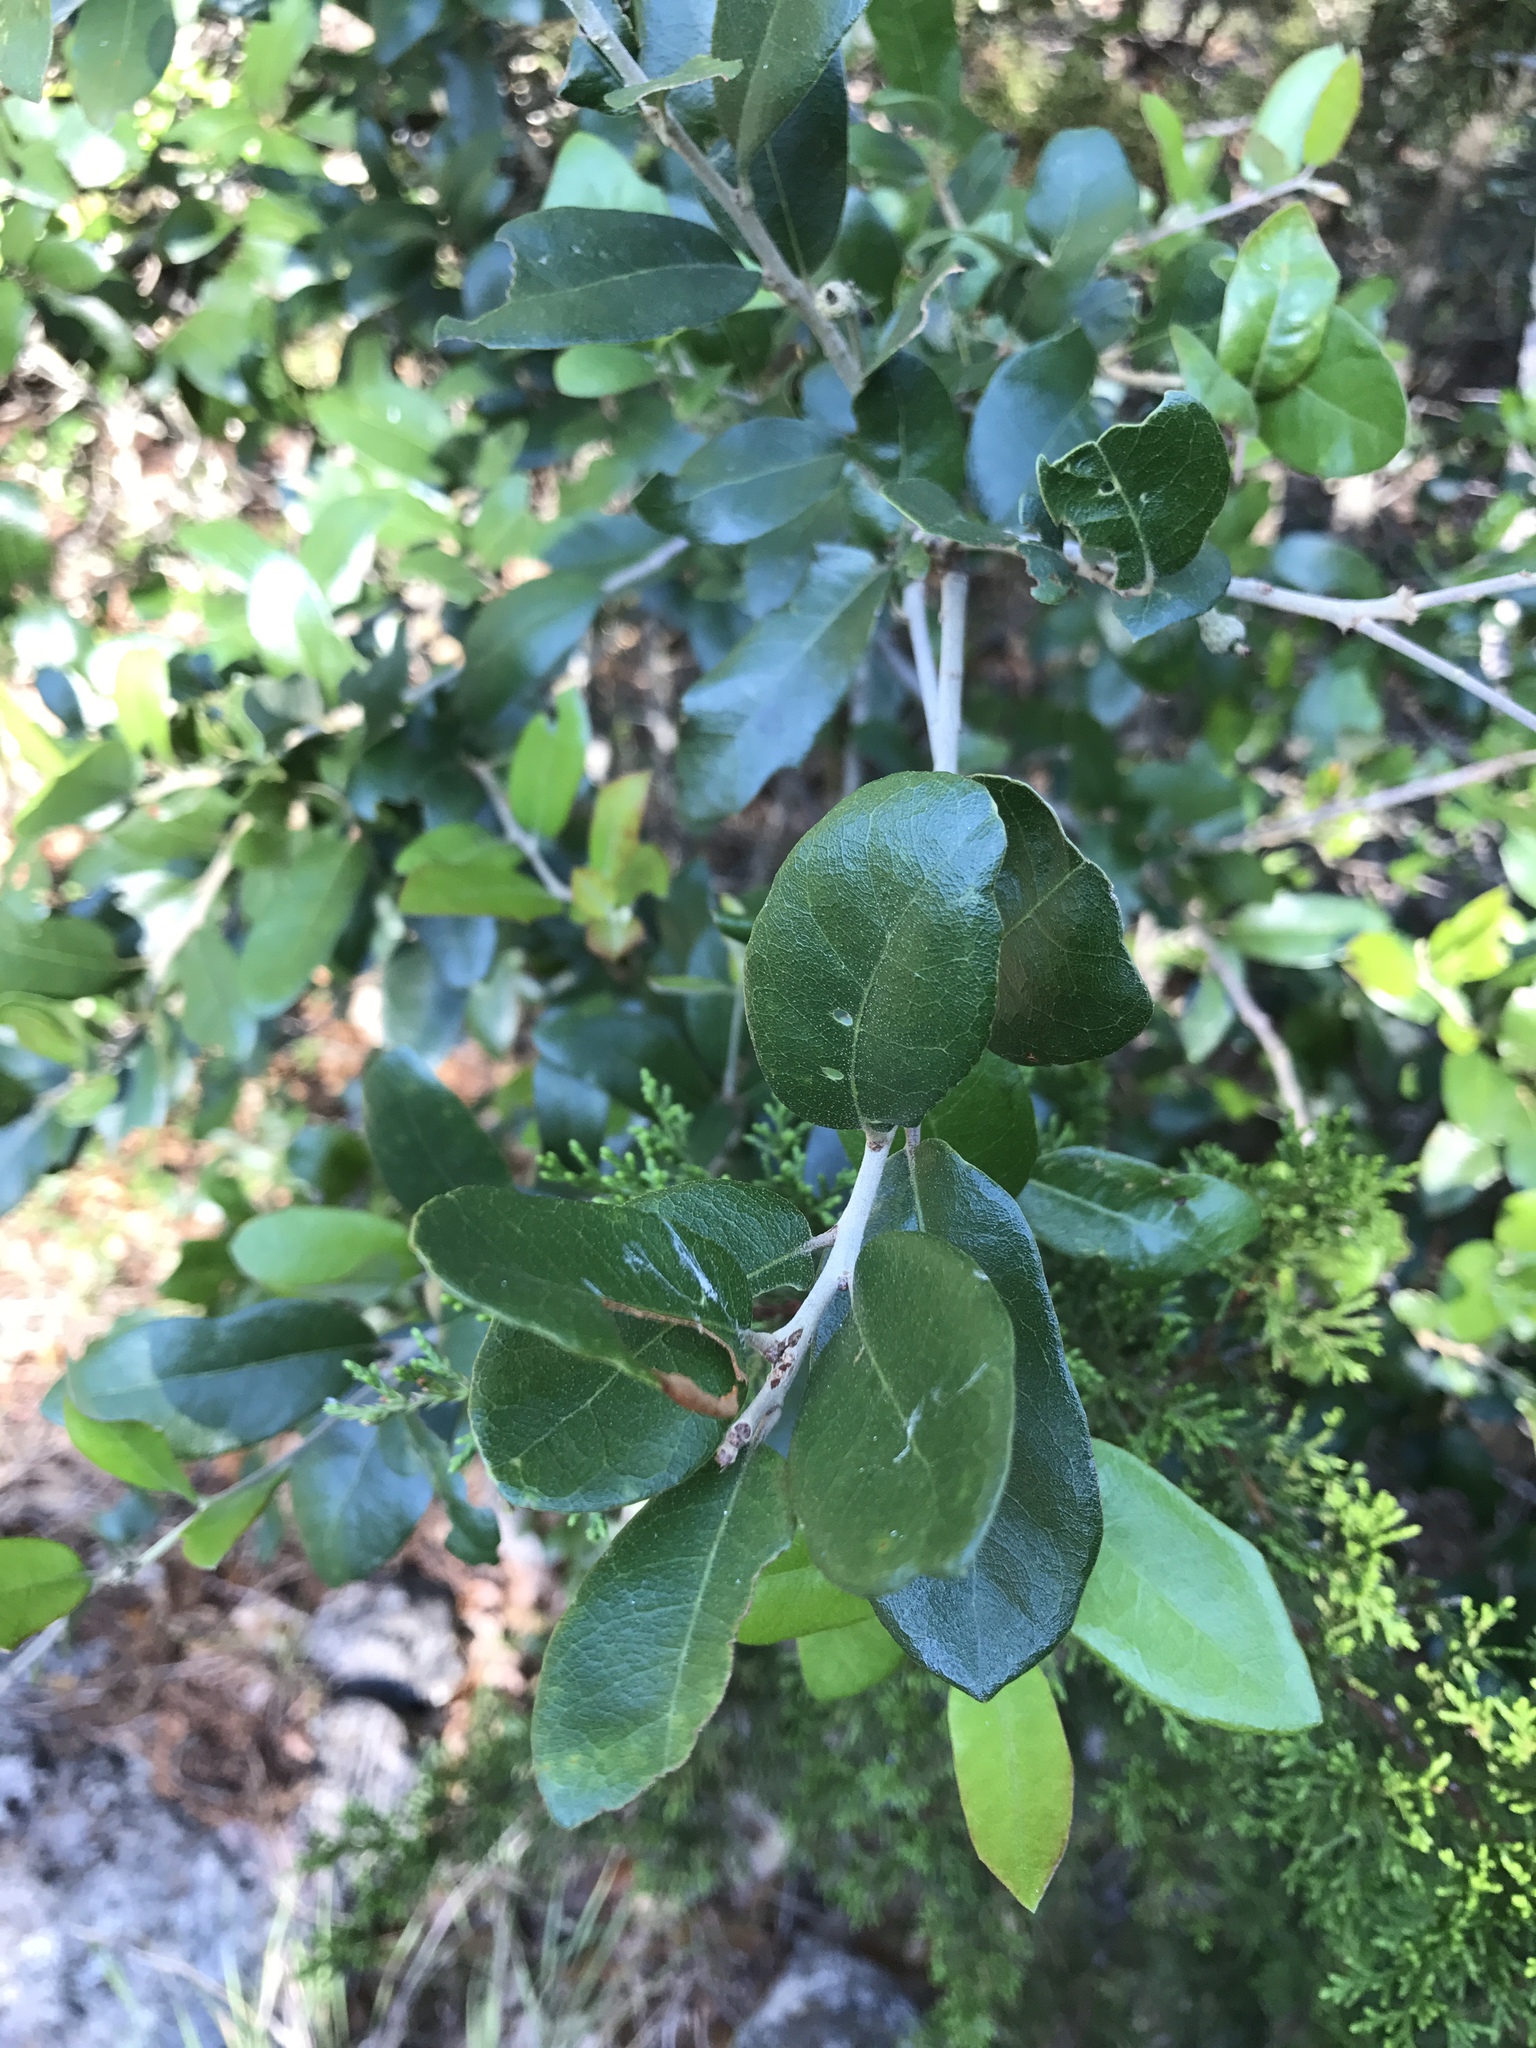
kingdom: Plantae
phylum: Tracheophyta
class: Magnoliopsida
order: Fagales
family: Fagaceae
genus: Quercus
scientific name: Quercus fusiformis
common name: Texas live oak
